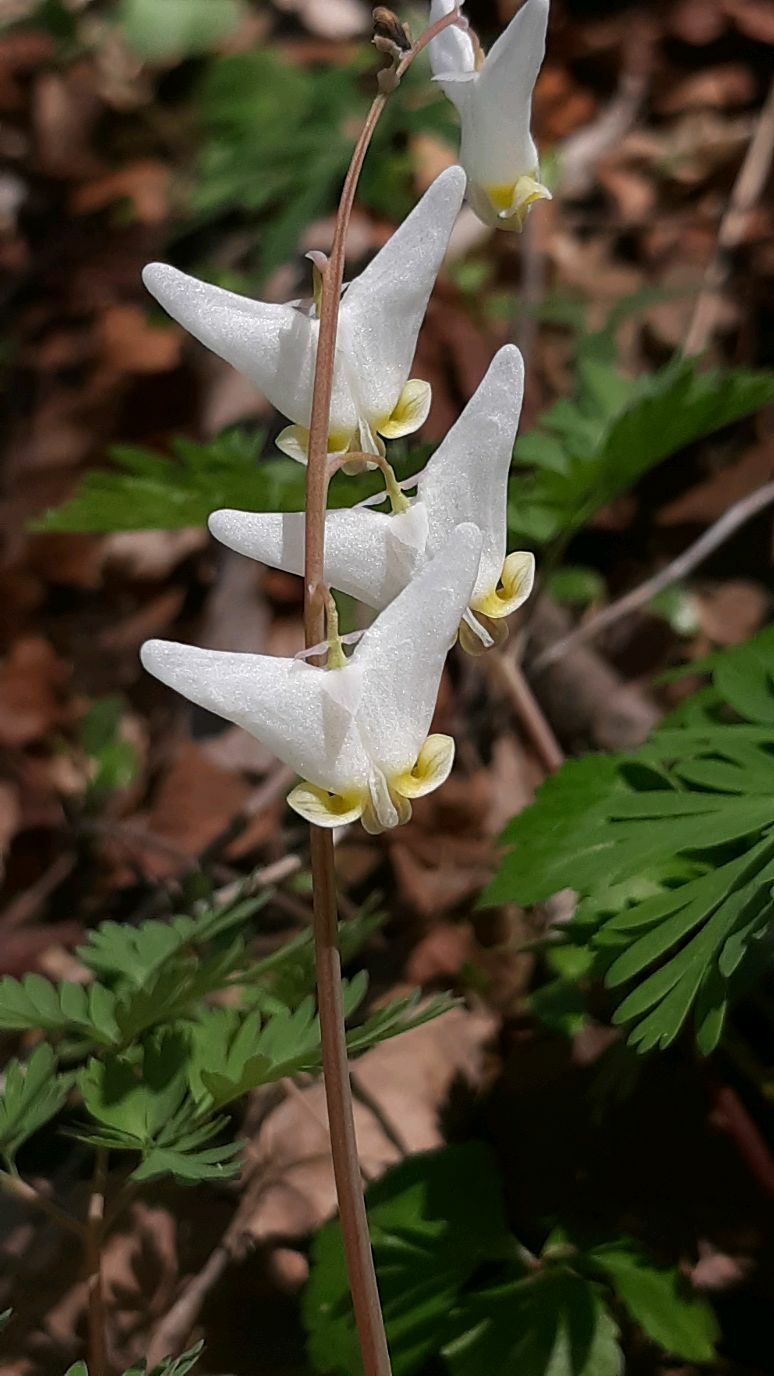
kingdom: Plantae
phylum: Tracheophyta
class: Magnoliopsida
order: Ranunculales
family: Papaveraceae
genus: Dicentra
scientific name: Dicentra cucullaria
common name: Dutchman's breeches
